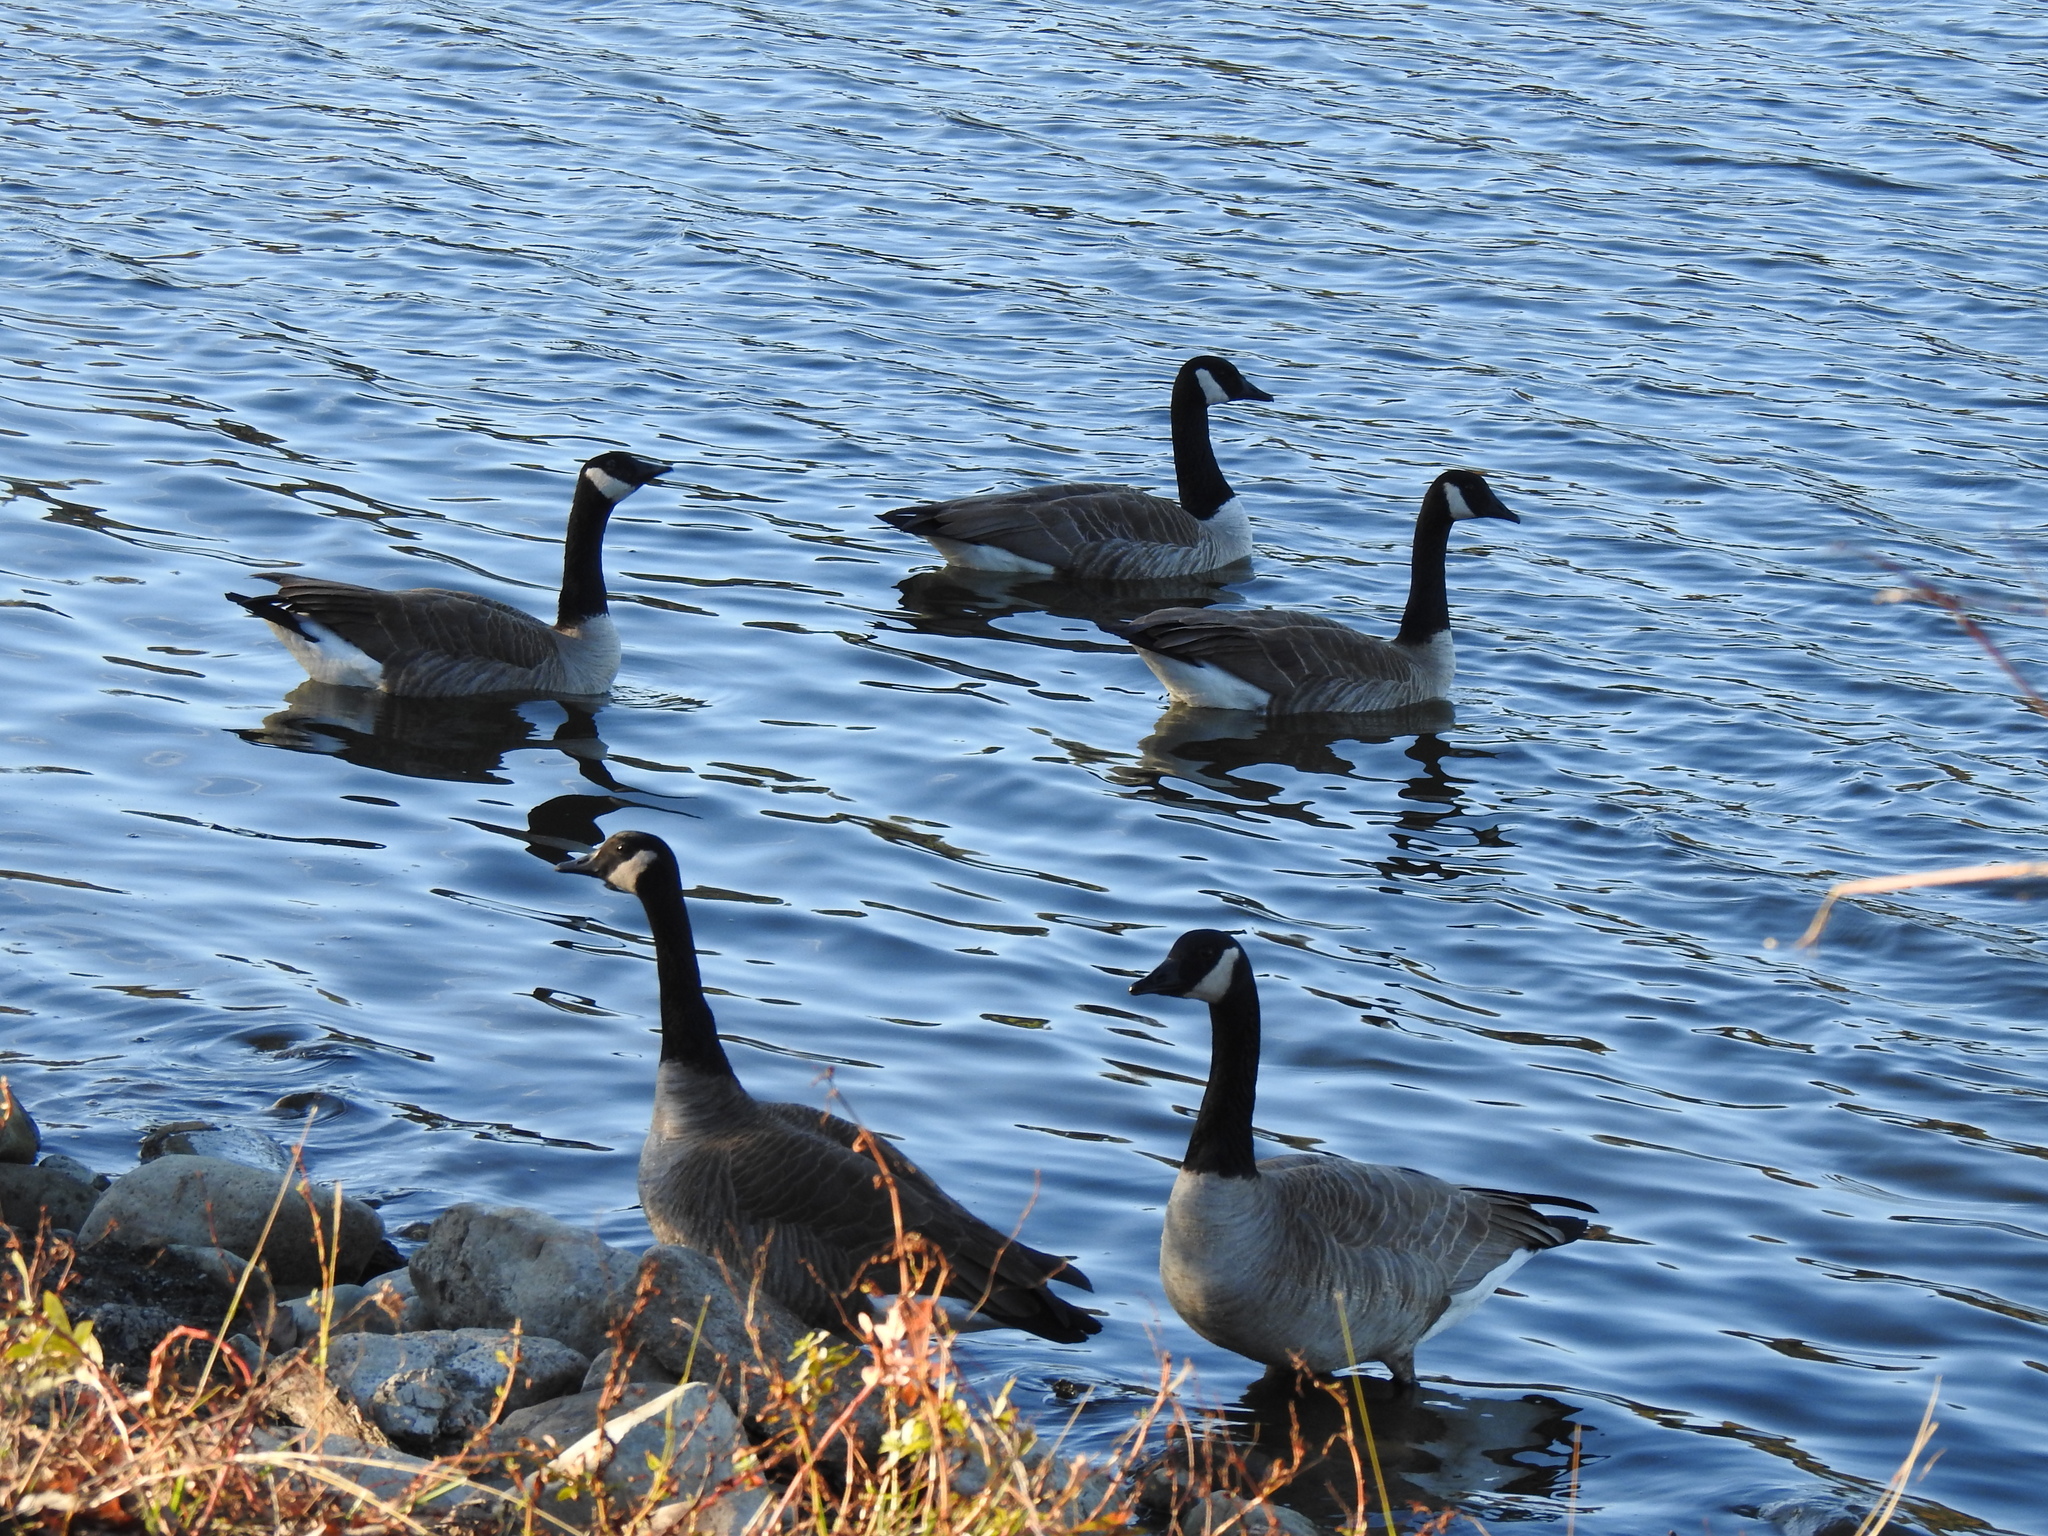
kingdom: Animalia
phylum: Chordata
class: Aves
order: Anseriformes
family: Anatidae
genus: Branta
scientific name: Branta canadensis
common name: Canada goose
